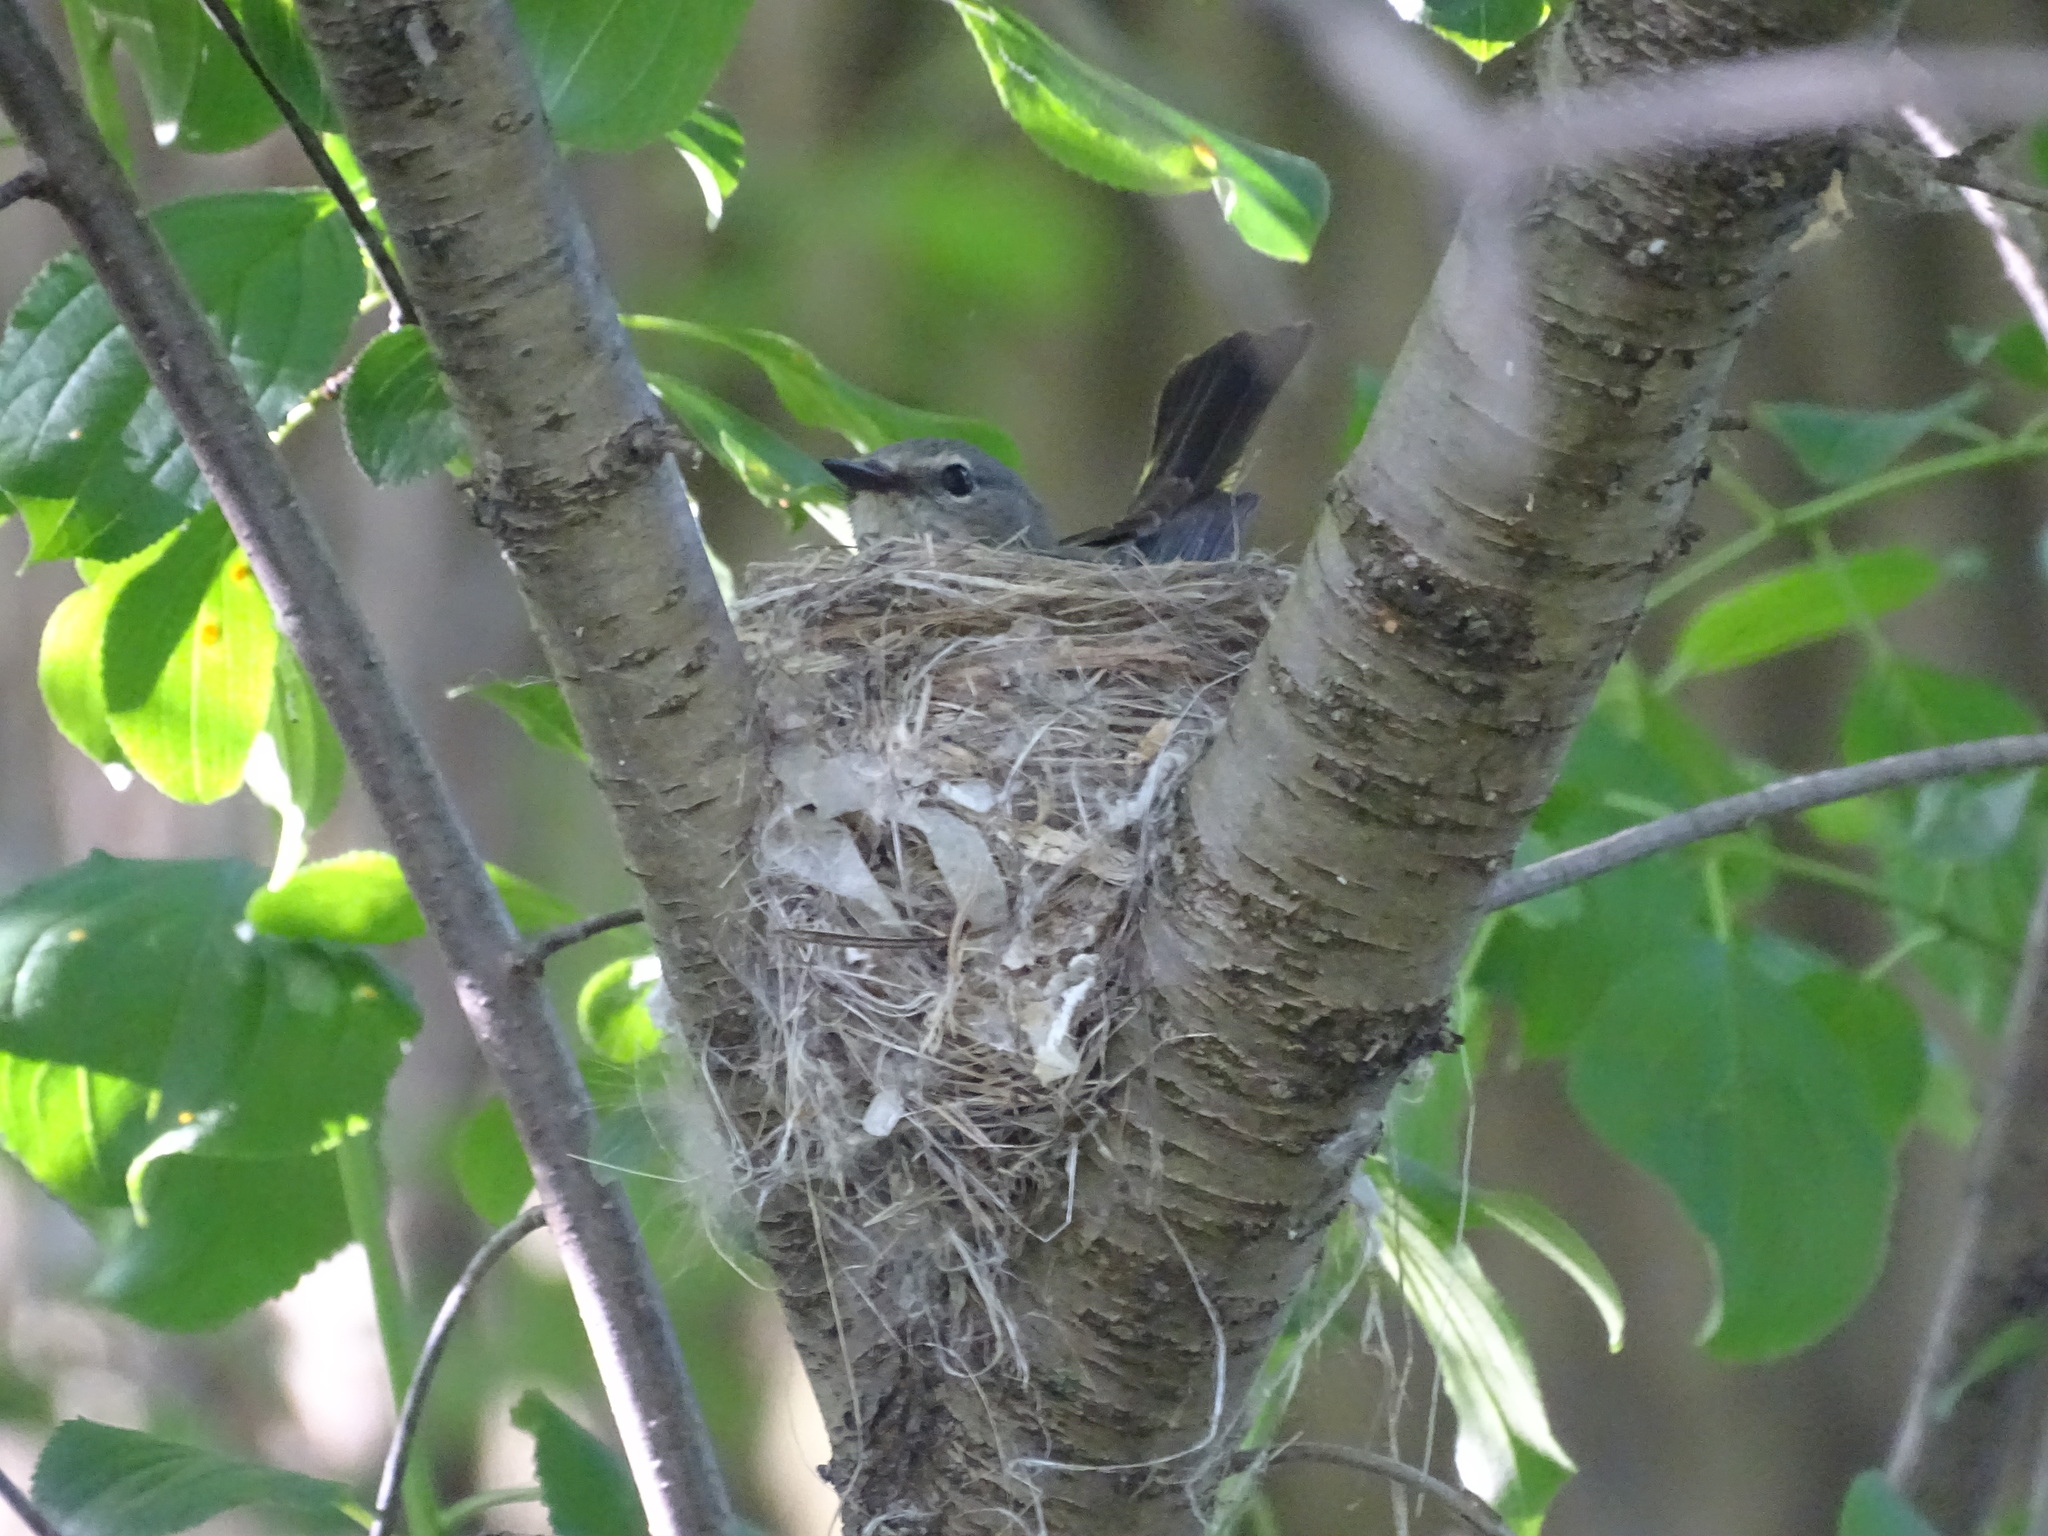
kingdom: Animalia
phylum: Chordata
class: Aves
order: Passeriformes
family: Parulidae
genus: Setophaga
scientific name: Setophaga ruticilla
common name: American redstart
